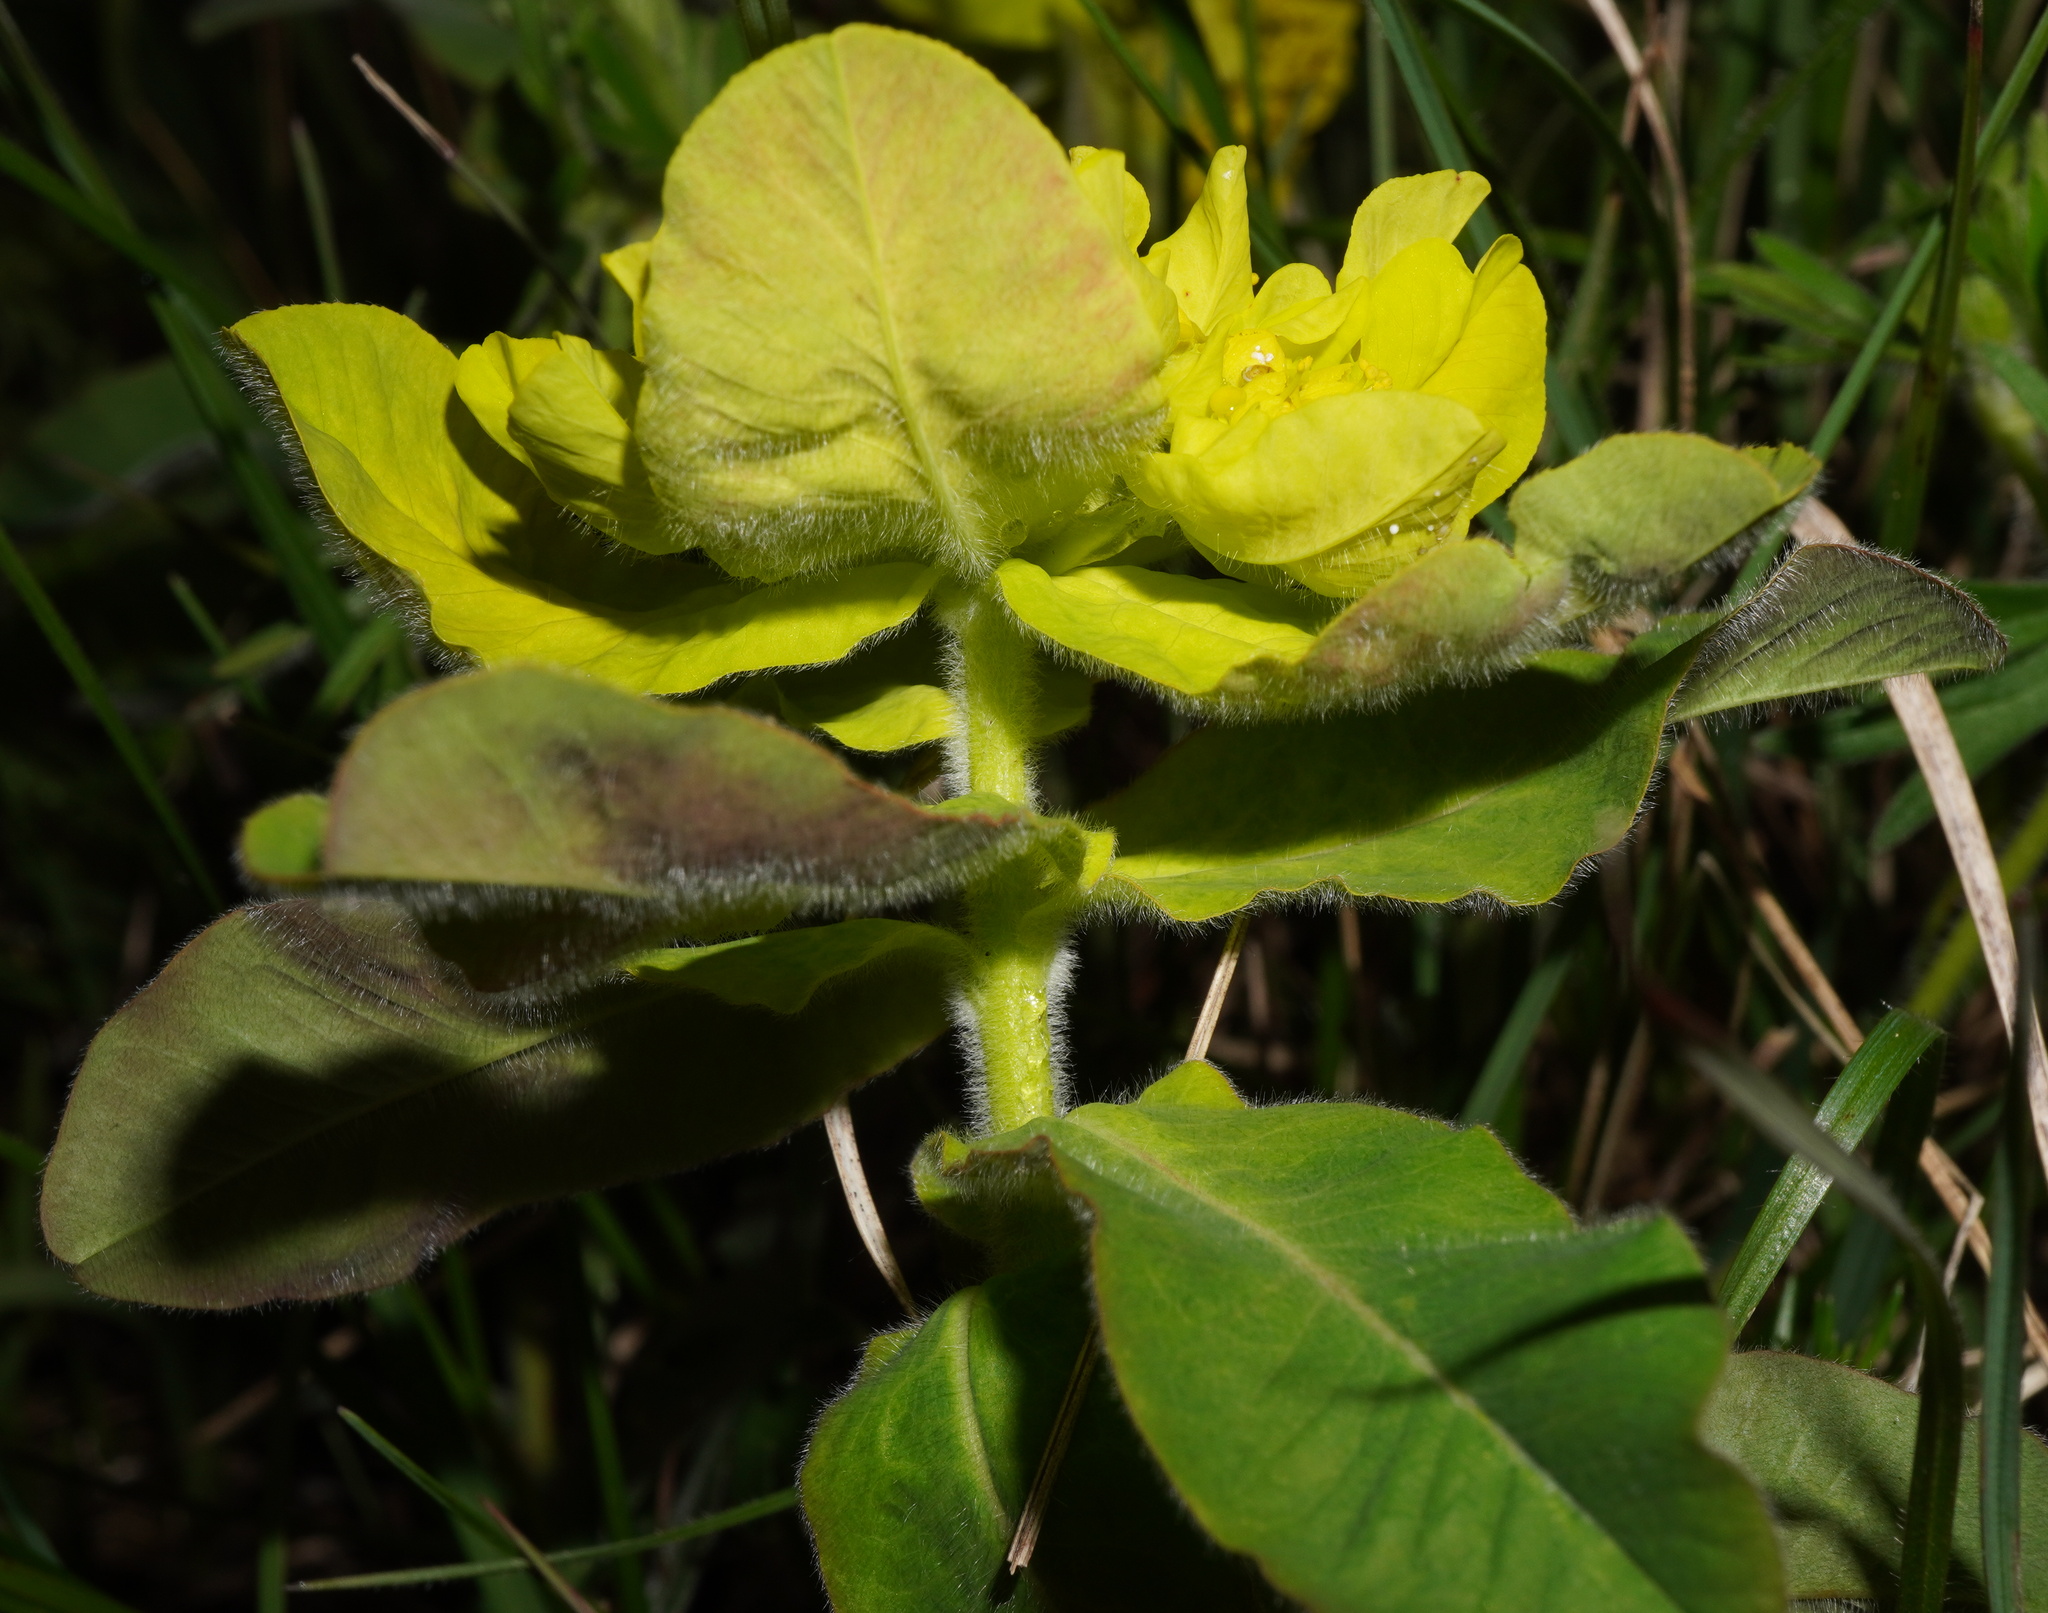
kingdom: Plantae
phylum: Tracheophyta
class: Magnoliopsida
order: Malpighiales
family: Euphorbiaceae
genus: Euphorbia
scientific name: Euphorbia epithymoides
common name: Cushion spurge
